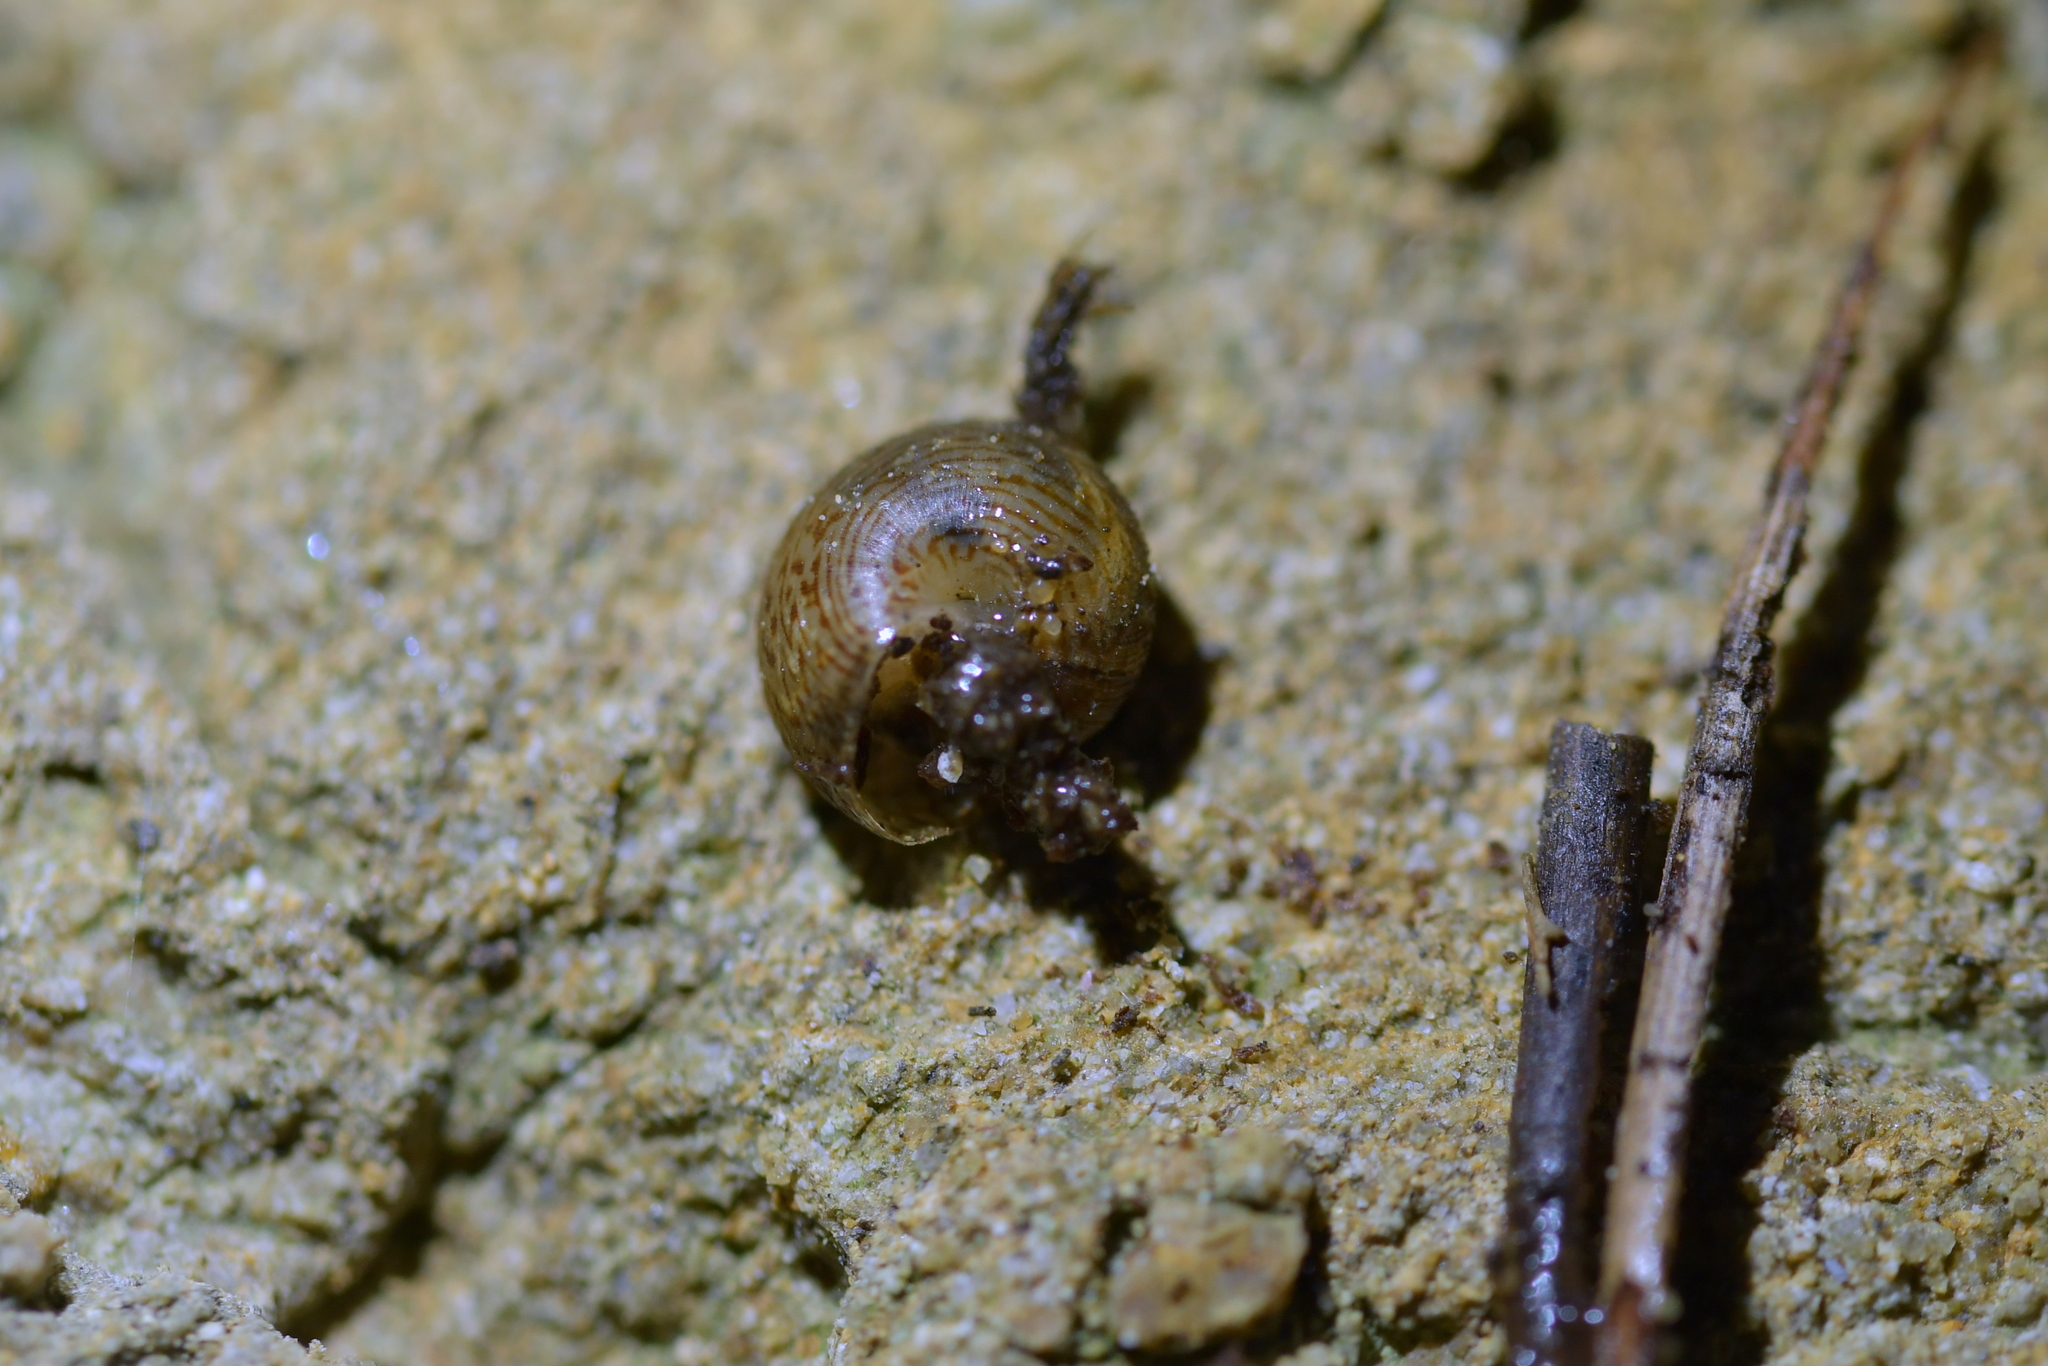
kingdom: Animalia
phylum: Mollusca
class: Gastropoda
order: Stylommatophora
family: Charopidae
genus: Thalassohelix
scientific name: Thalassohelix zelandiae
